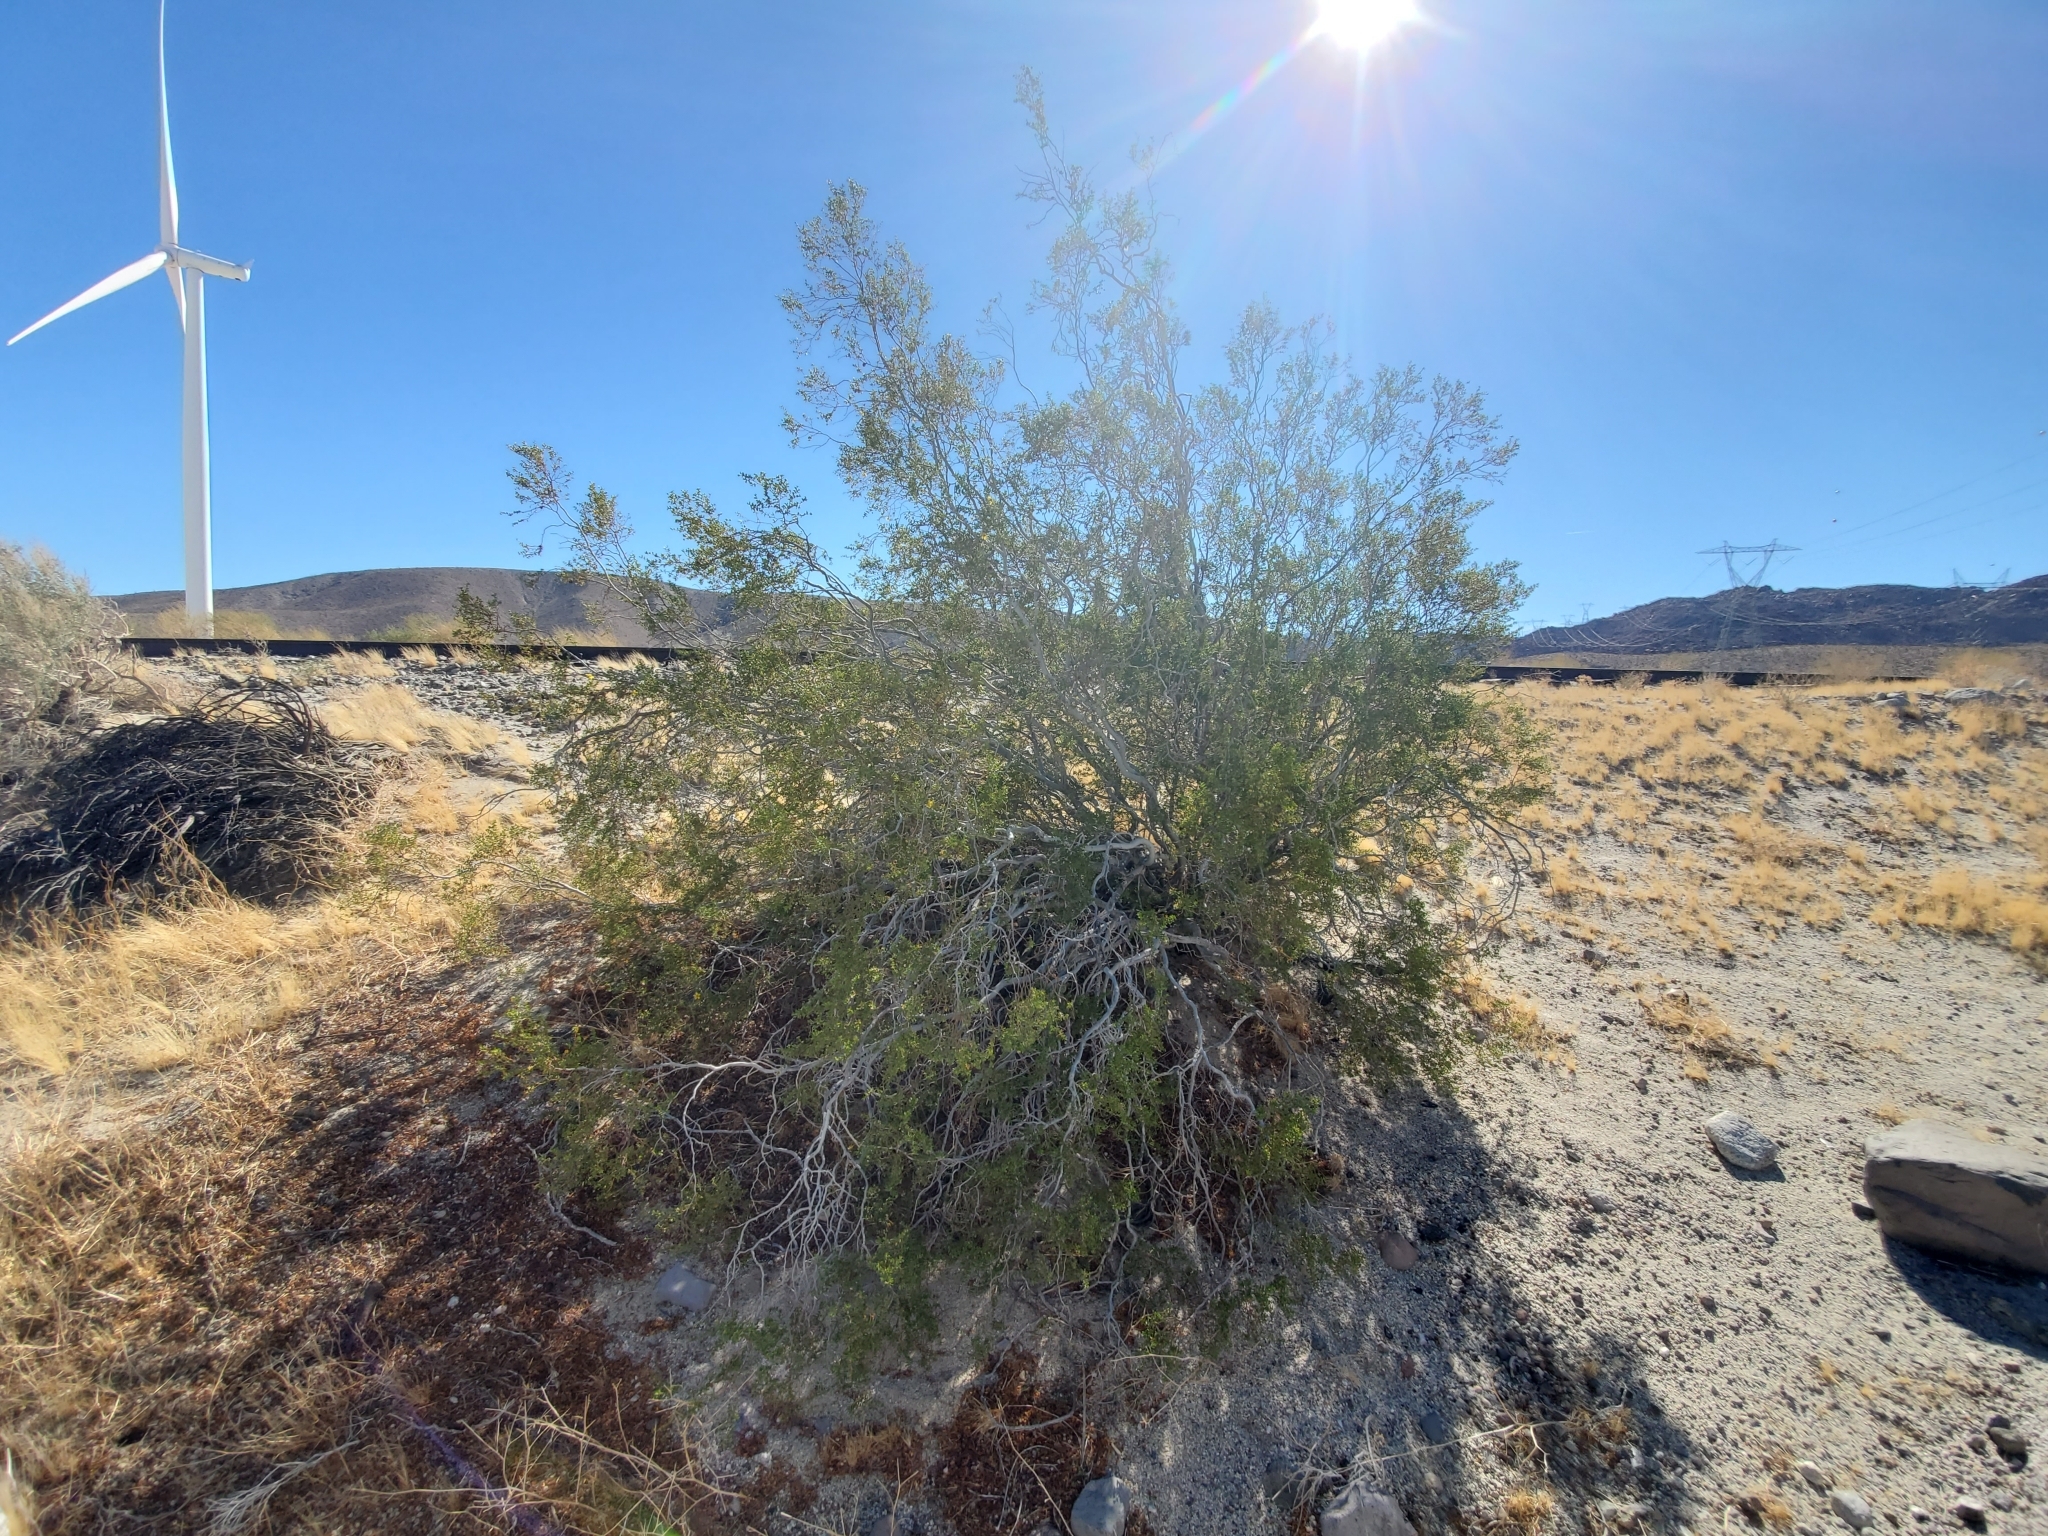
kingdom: Plantae
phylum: Tracheophyta
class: Magnoliopsida
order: Zygophyllales
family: Zygophyllaceae
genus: Larrea
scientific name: Larrea tridentata
